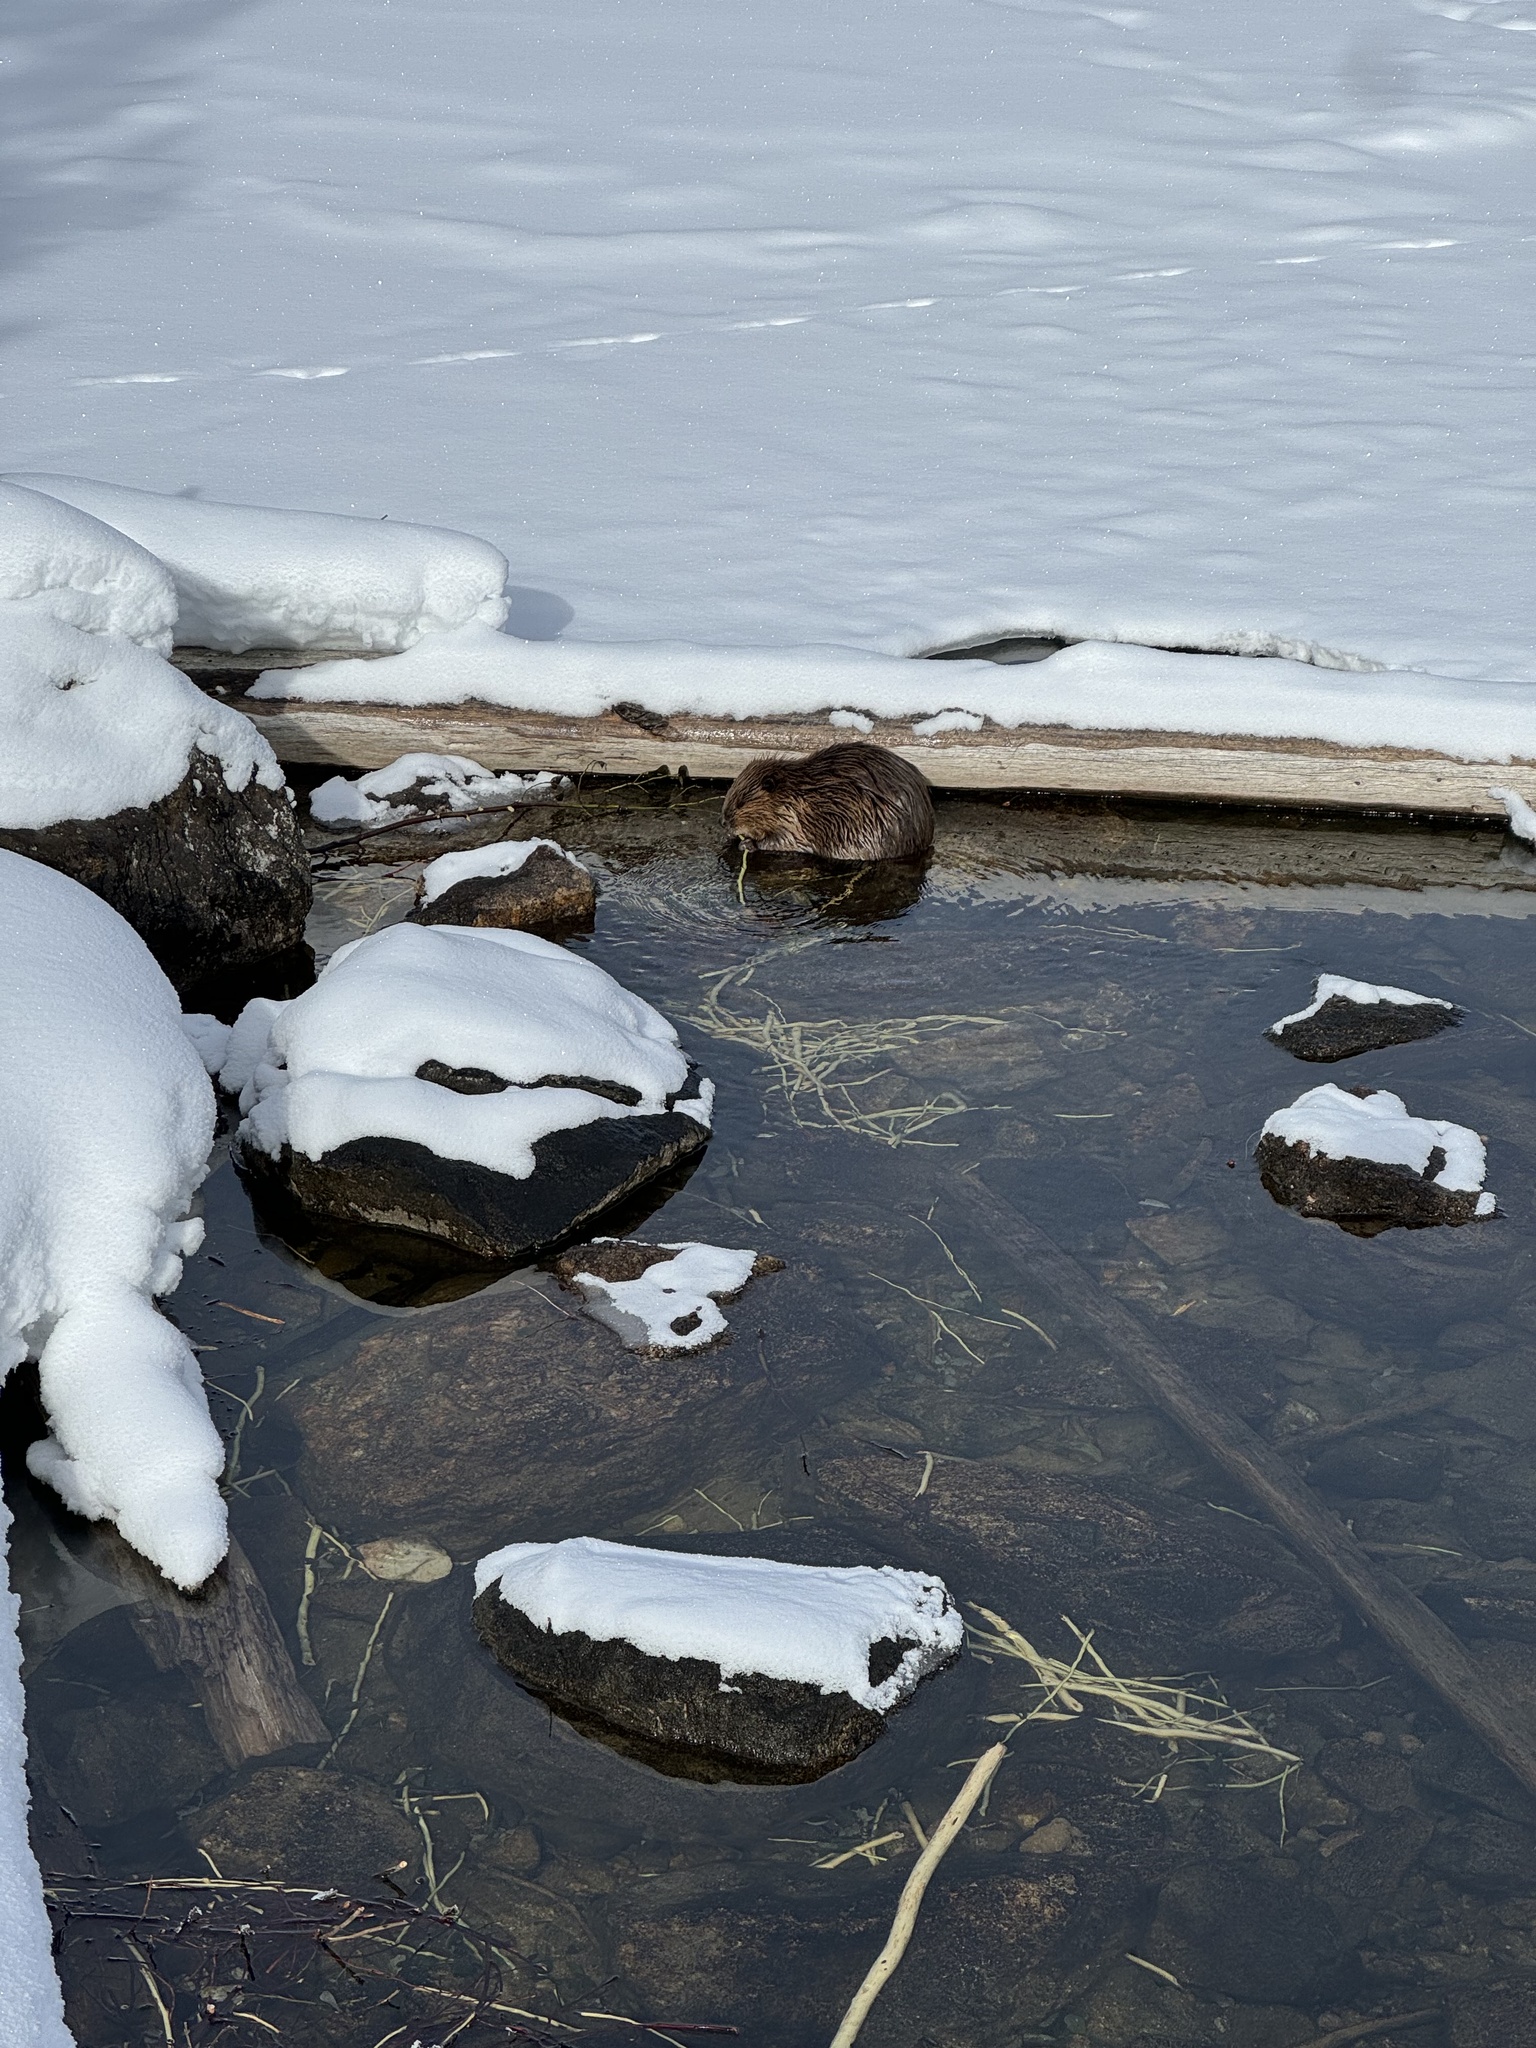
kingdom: Animalia
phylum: Chordata
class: Mammalia
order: Rodentia
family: Castoridae
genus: Castor
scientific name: Castor canadensis
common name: American beaver
